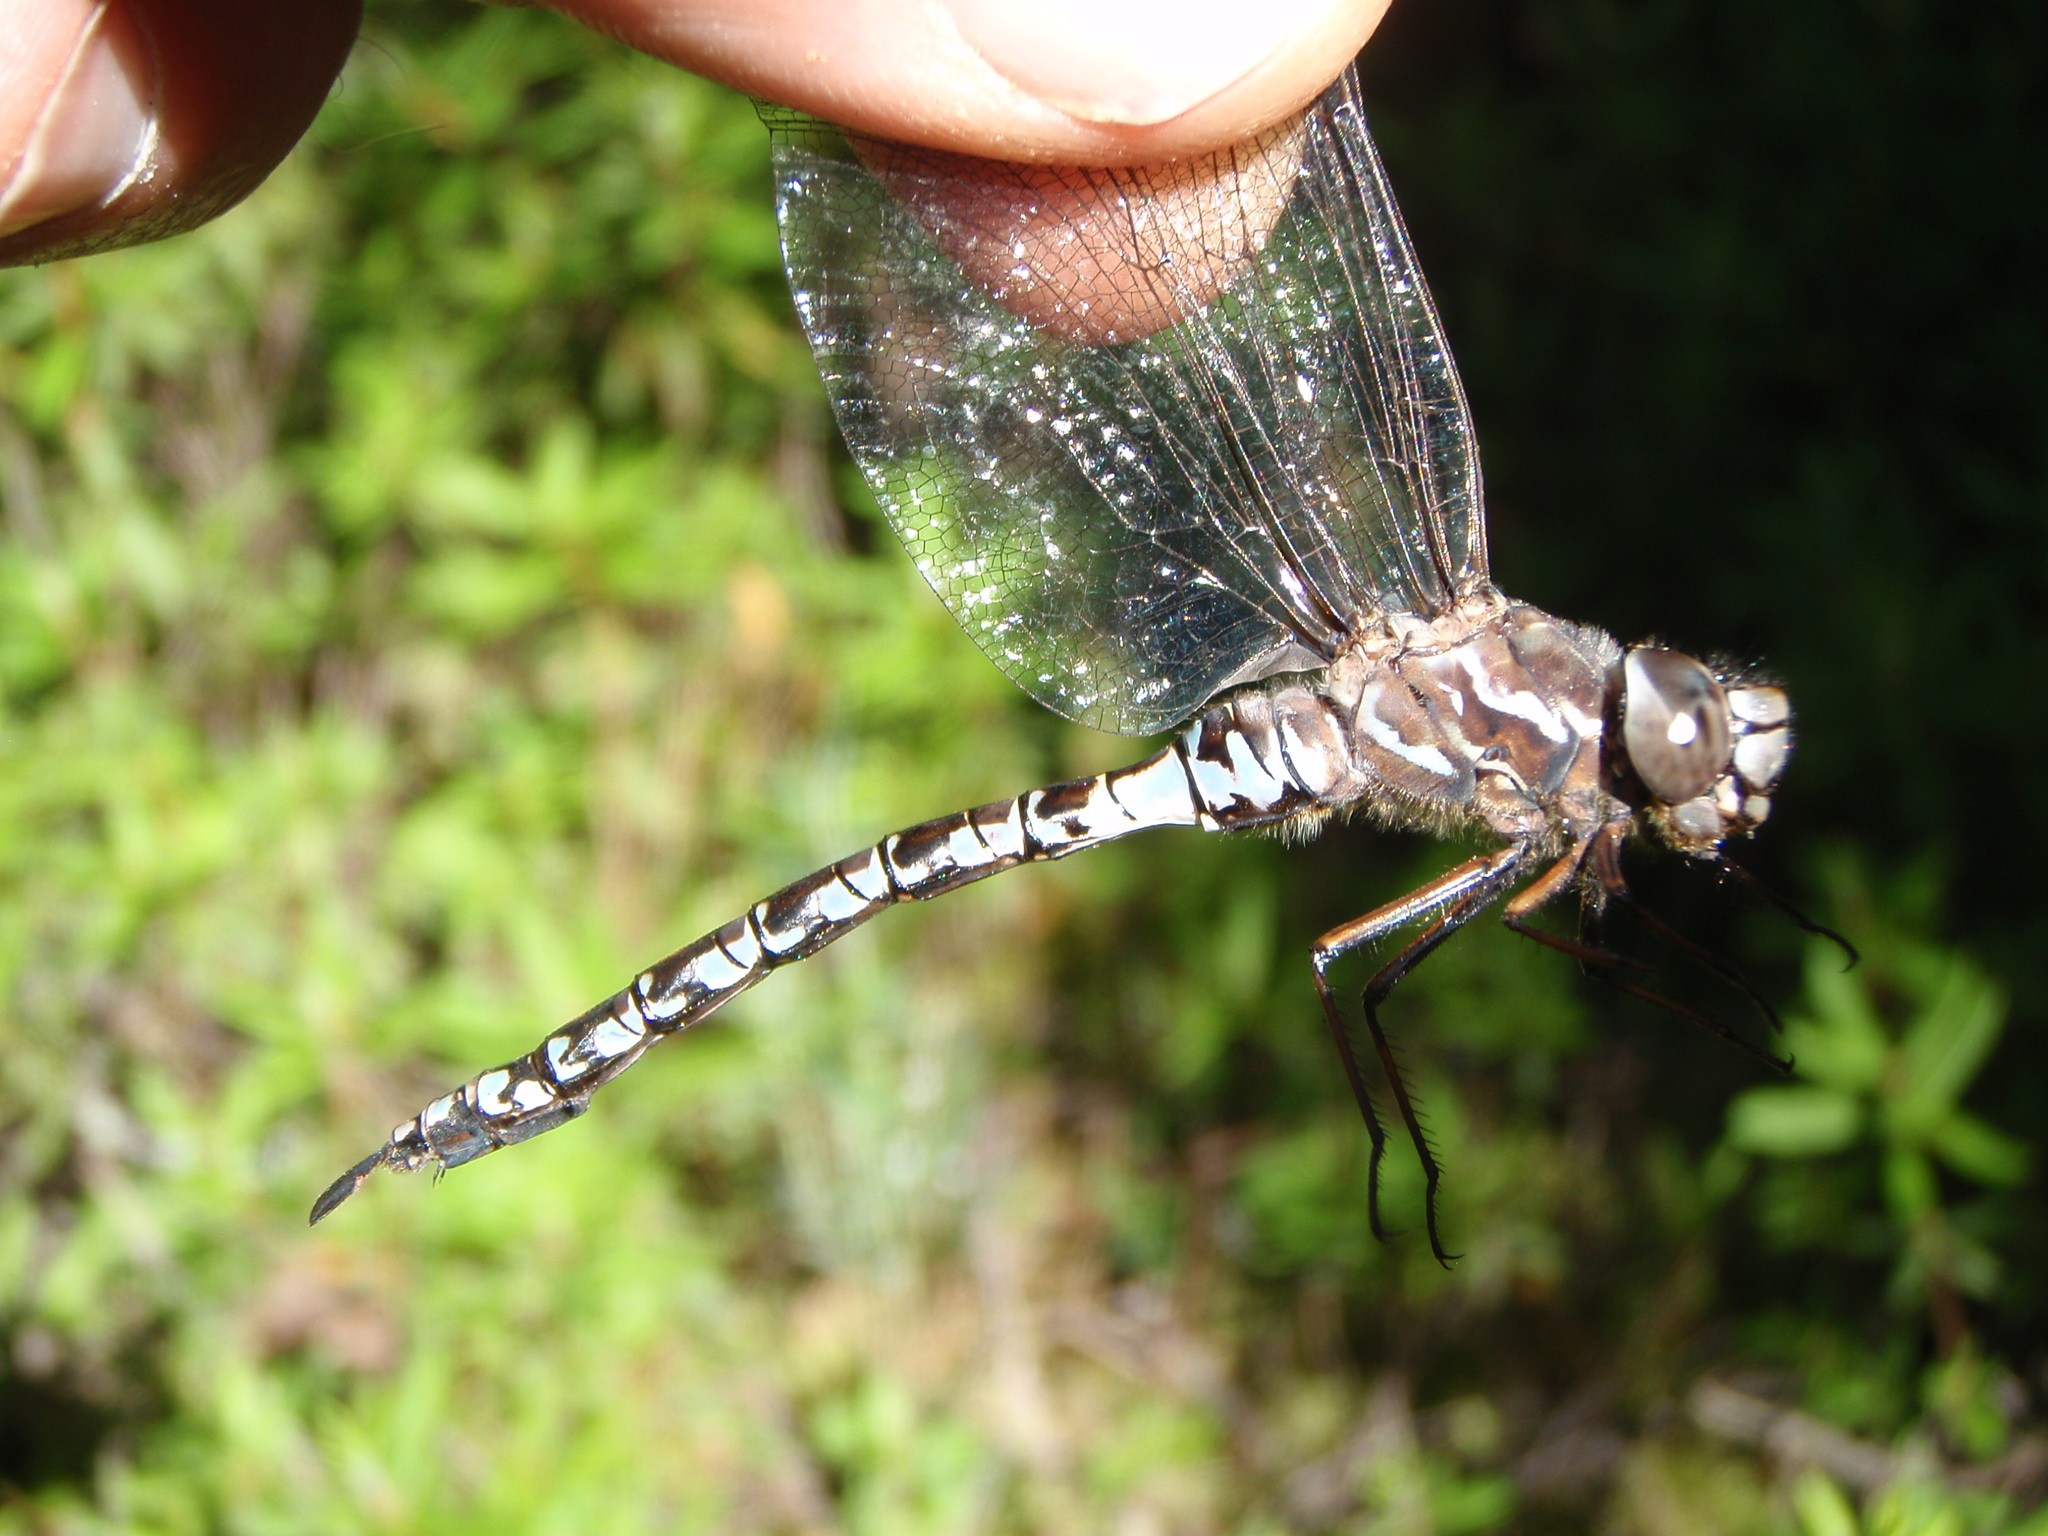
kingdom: Animalia
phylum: Arthropoda
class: Insecta
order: Odonata
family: Aeshnidae
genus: Aeshna
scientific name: Aeshna sitchensis
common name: Zigzag darner
